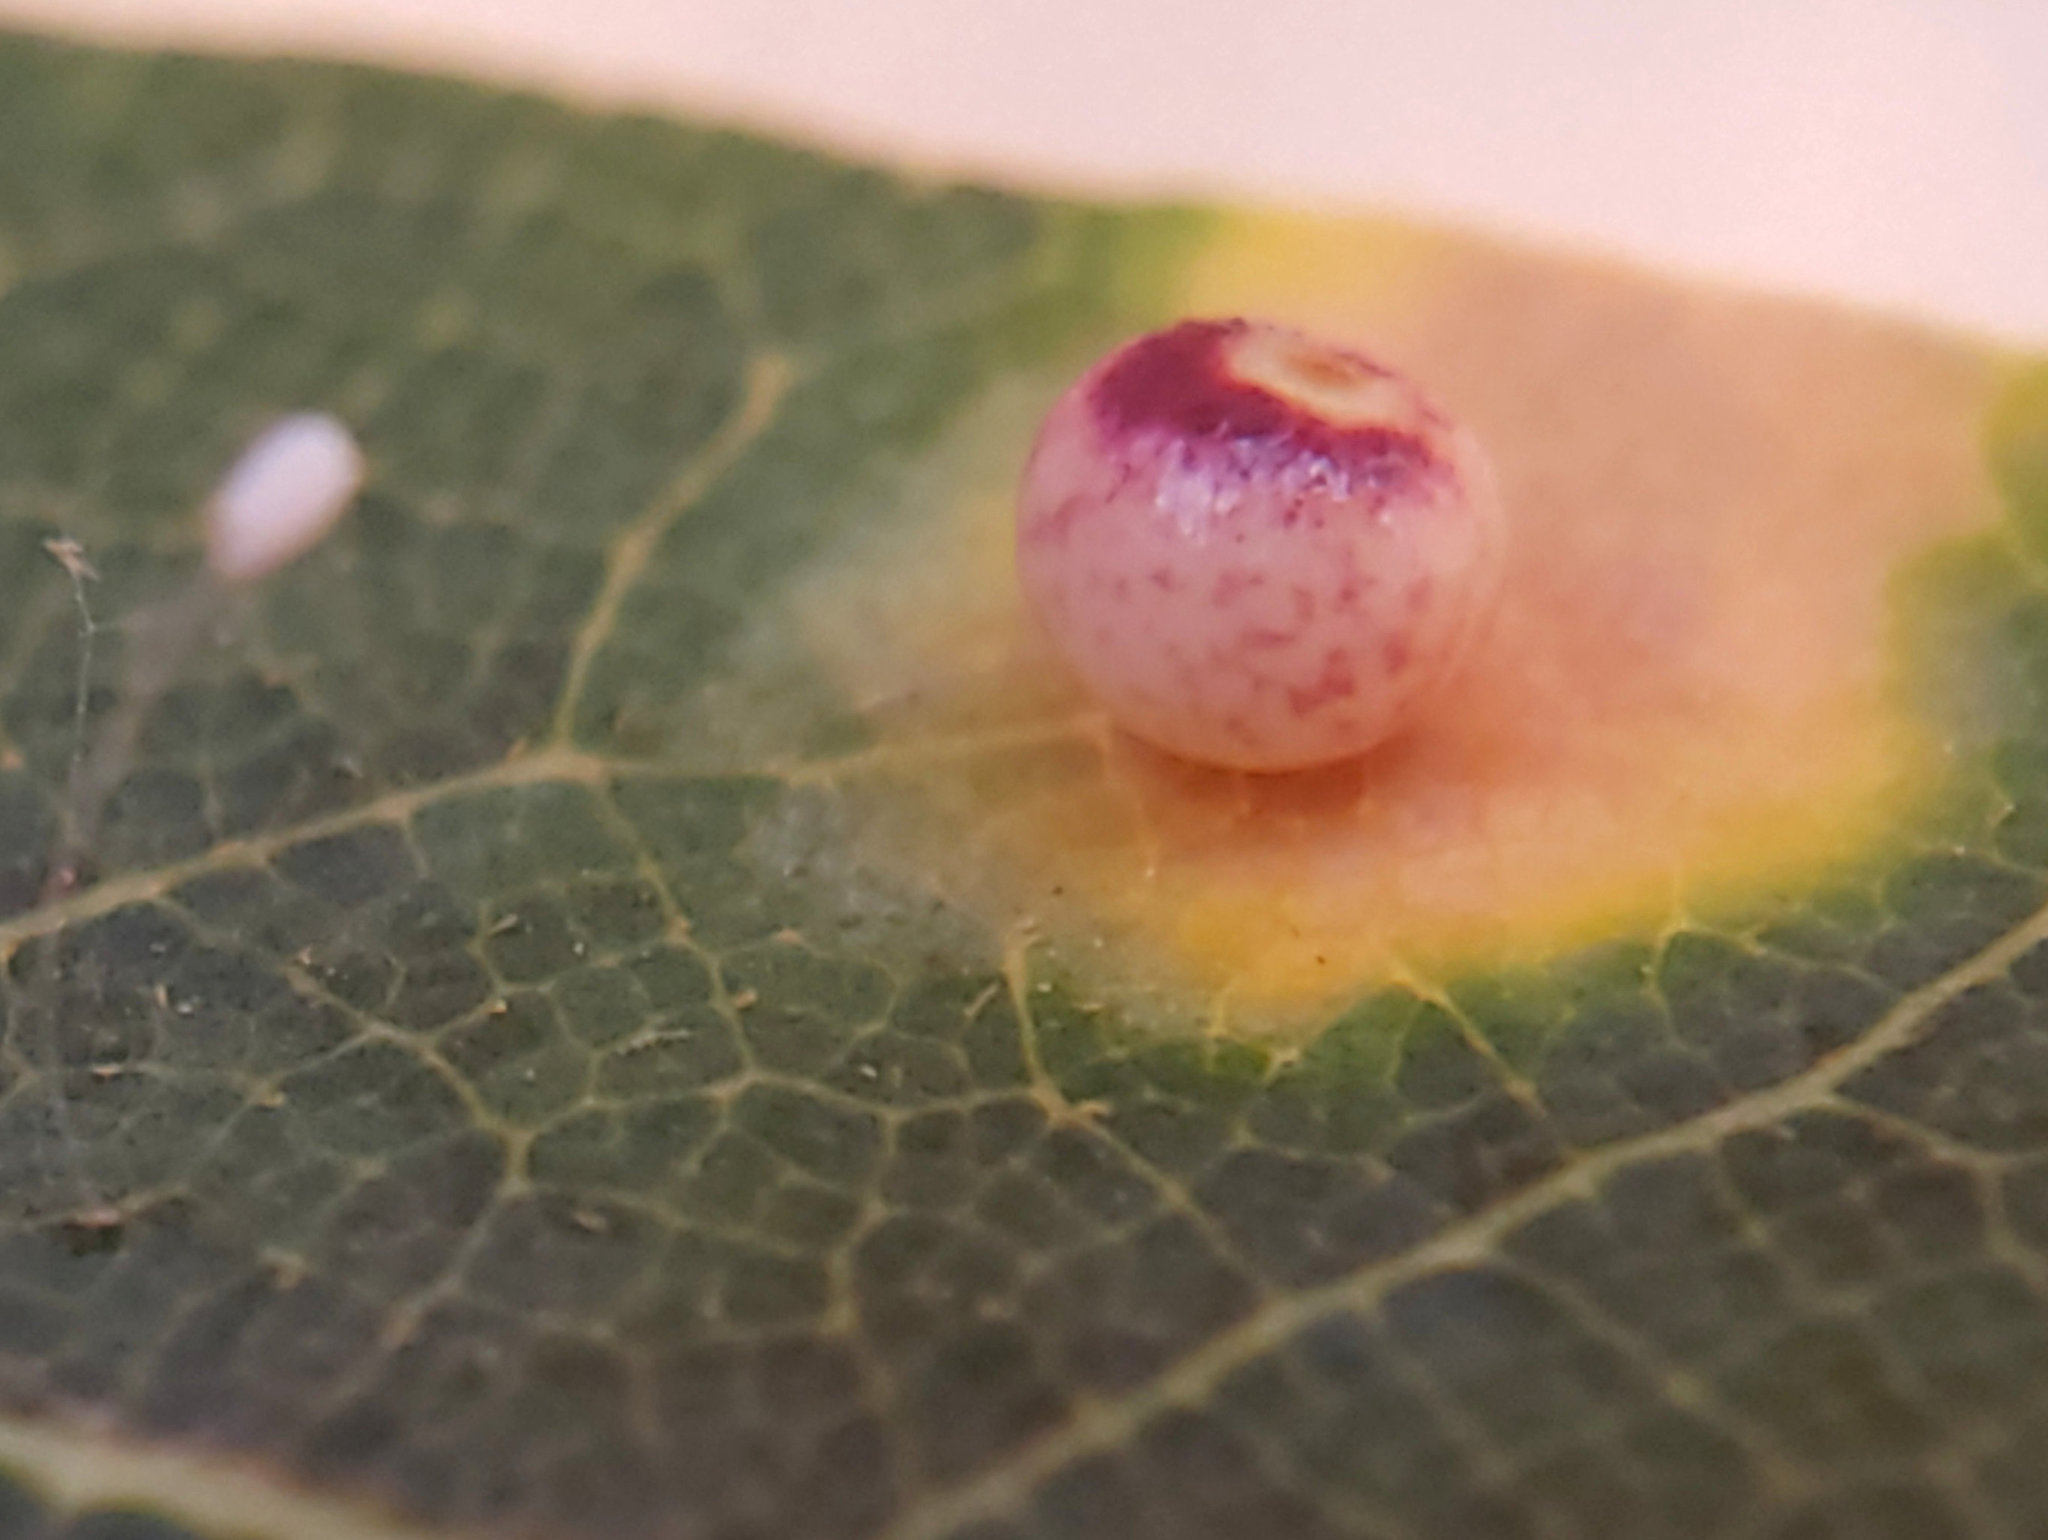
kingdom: Animalia
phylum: Arthropoda
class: Insecta
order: Hymenoptera
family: Cynipidae
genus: Dryocosmus
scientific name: Dryocosmus
